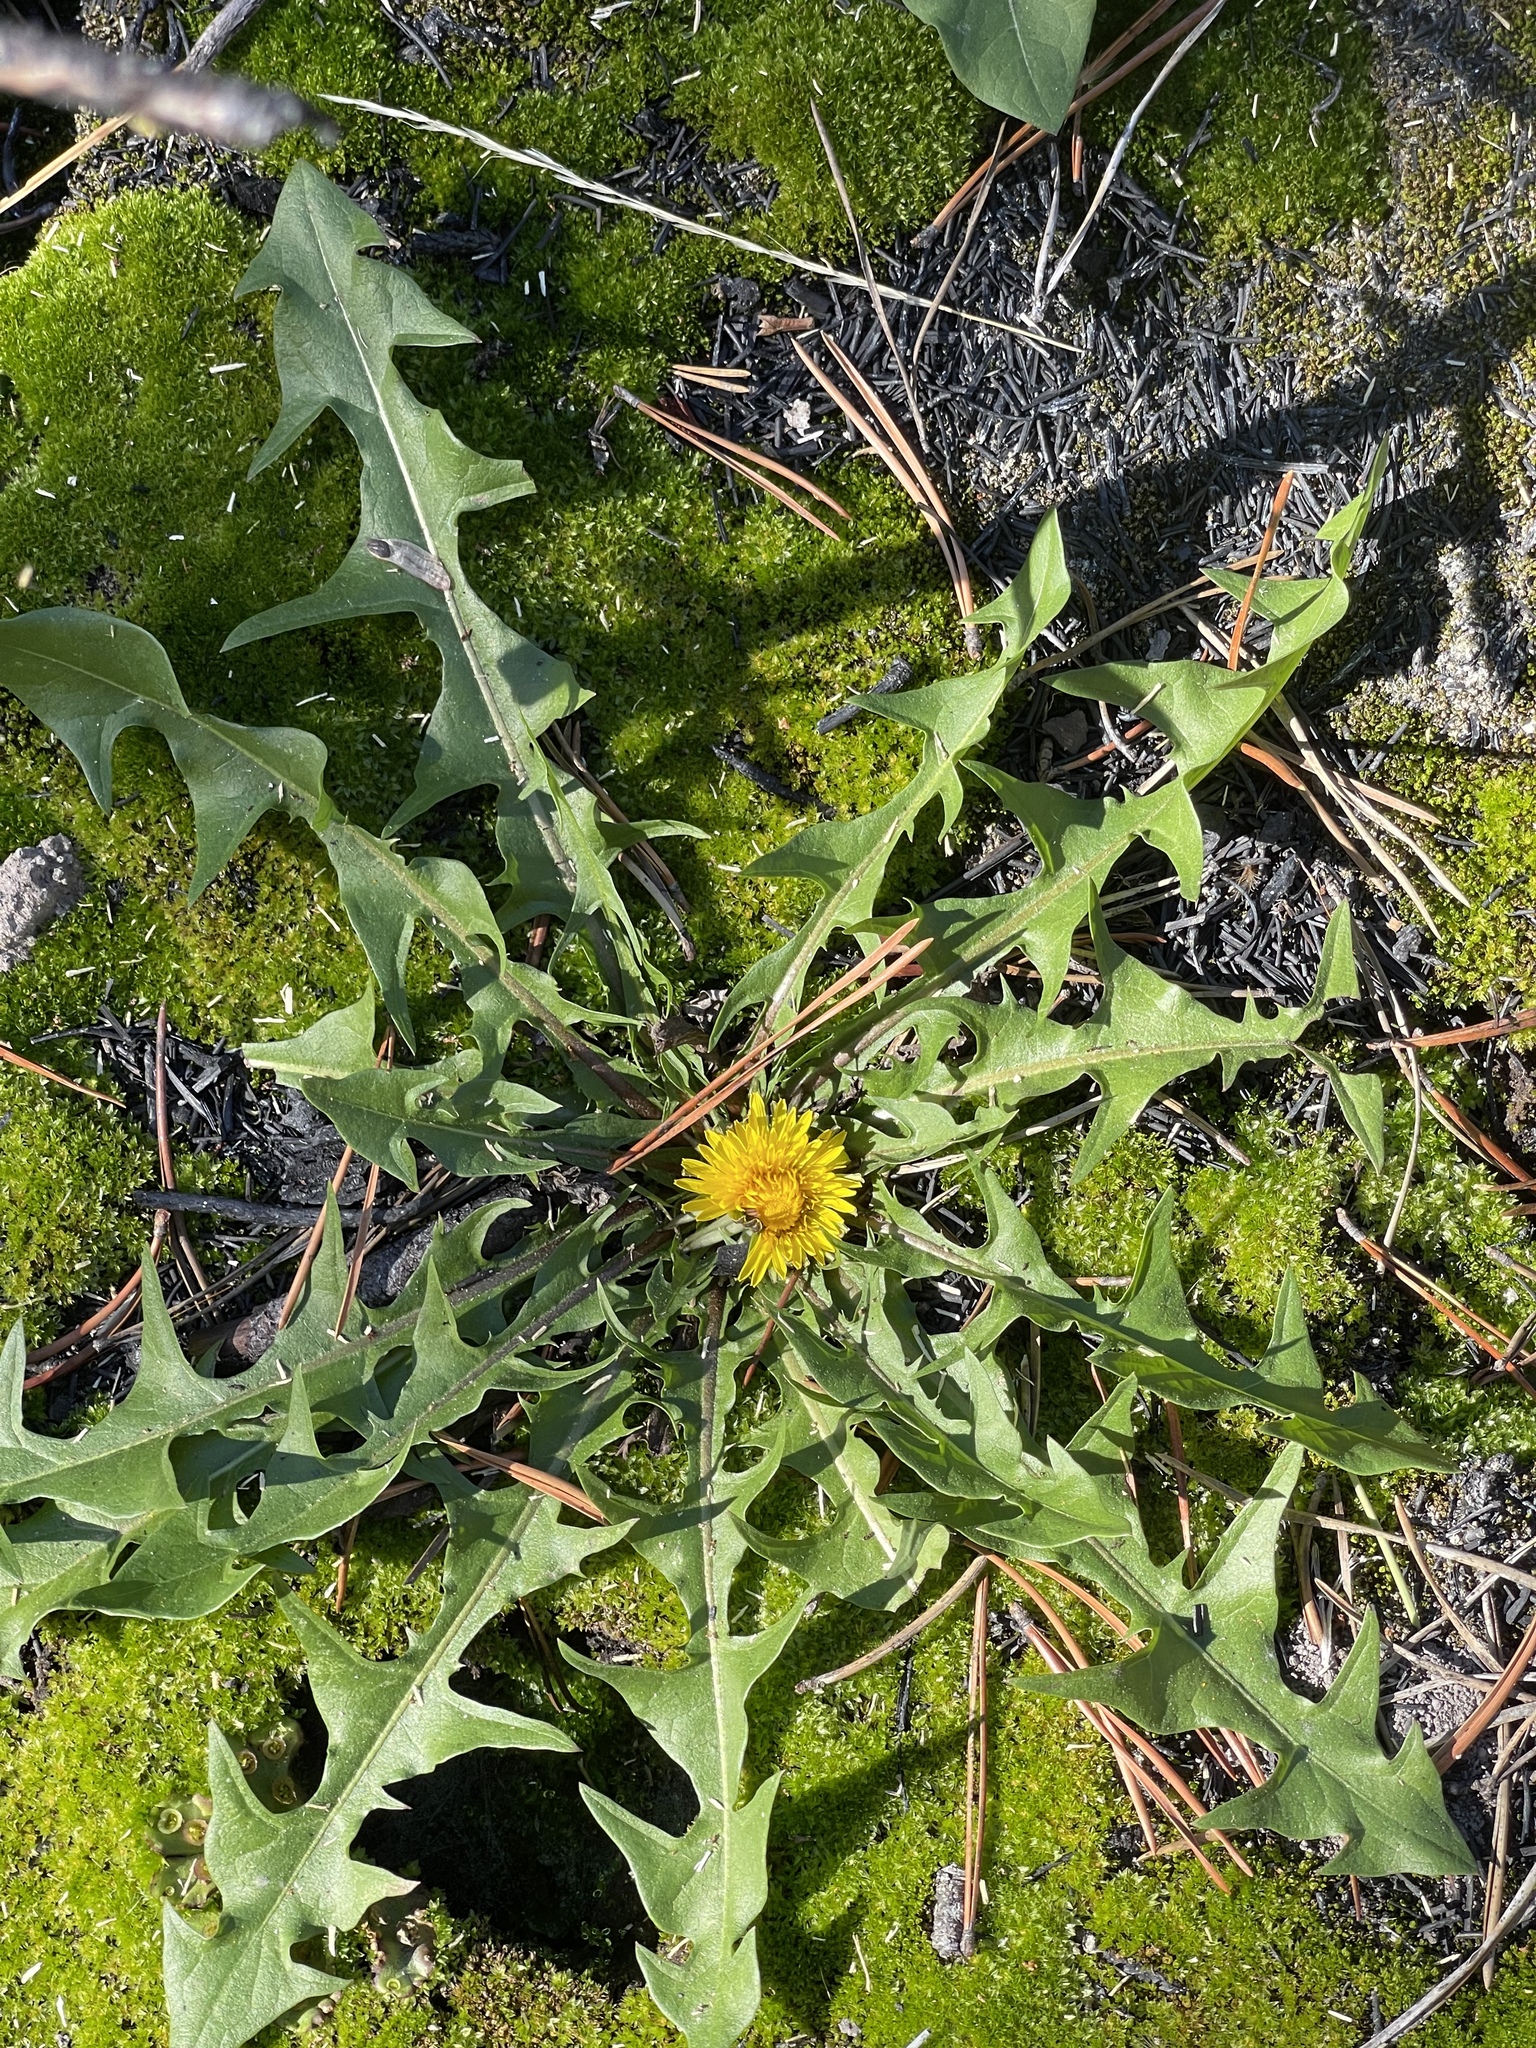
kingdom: Plantae
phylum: Tracheophyta
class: Magnoliopsida
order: Asterales
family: Asteraceae
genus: Taraxacum
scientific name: Taraxacum officinale
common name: Common dandelion
